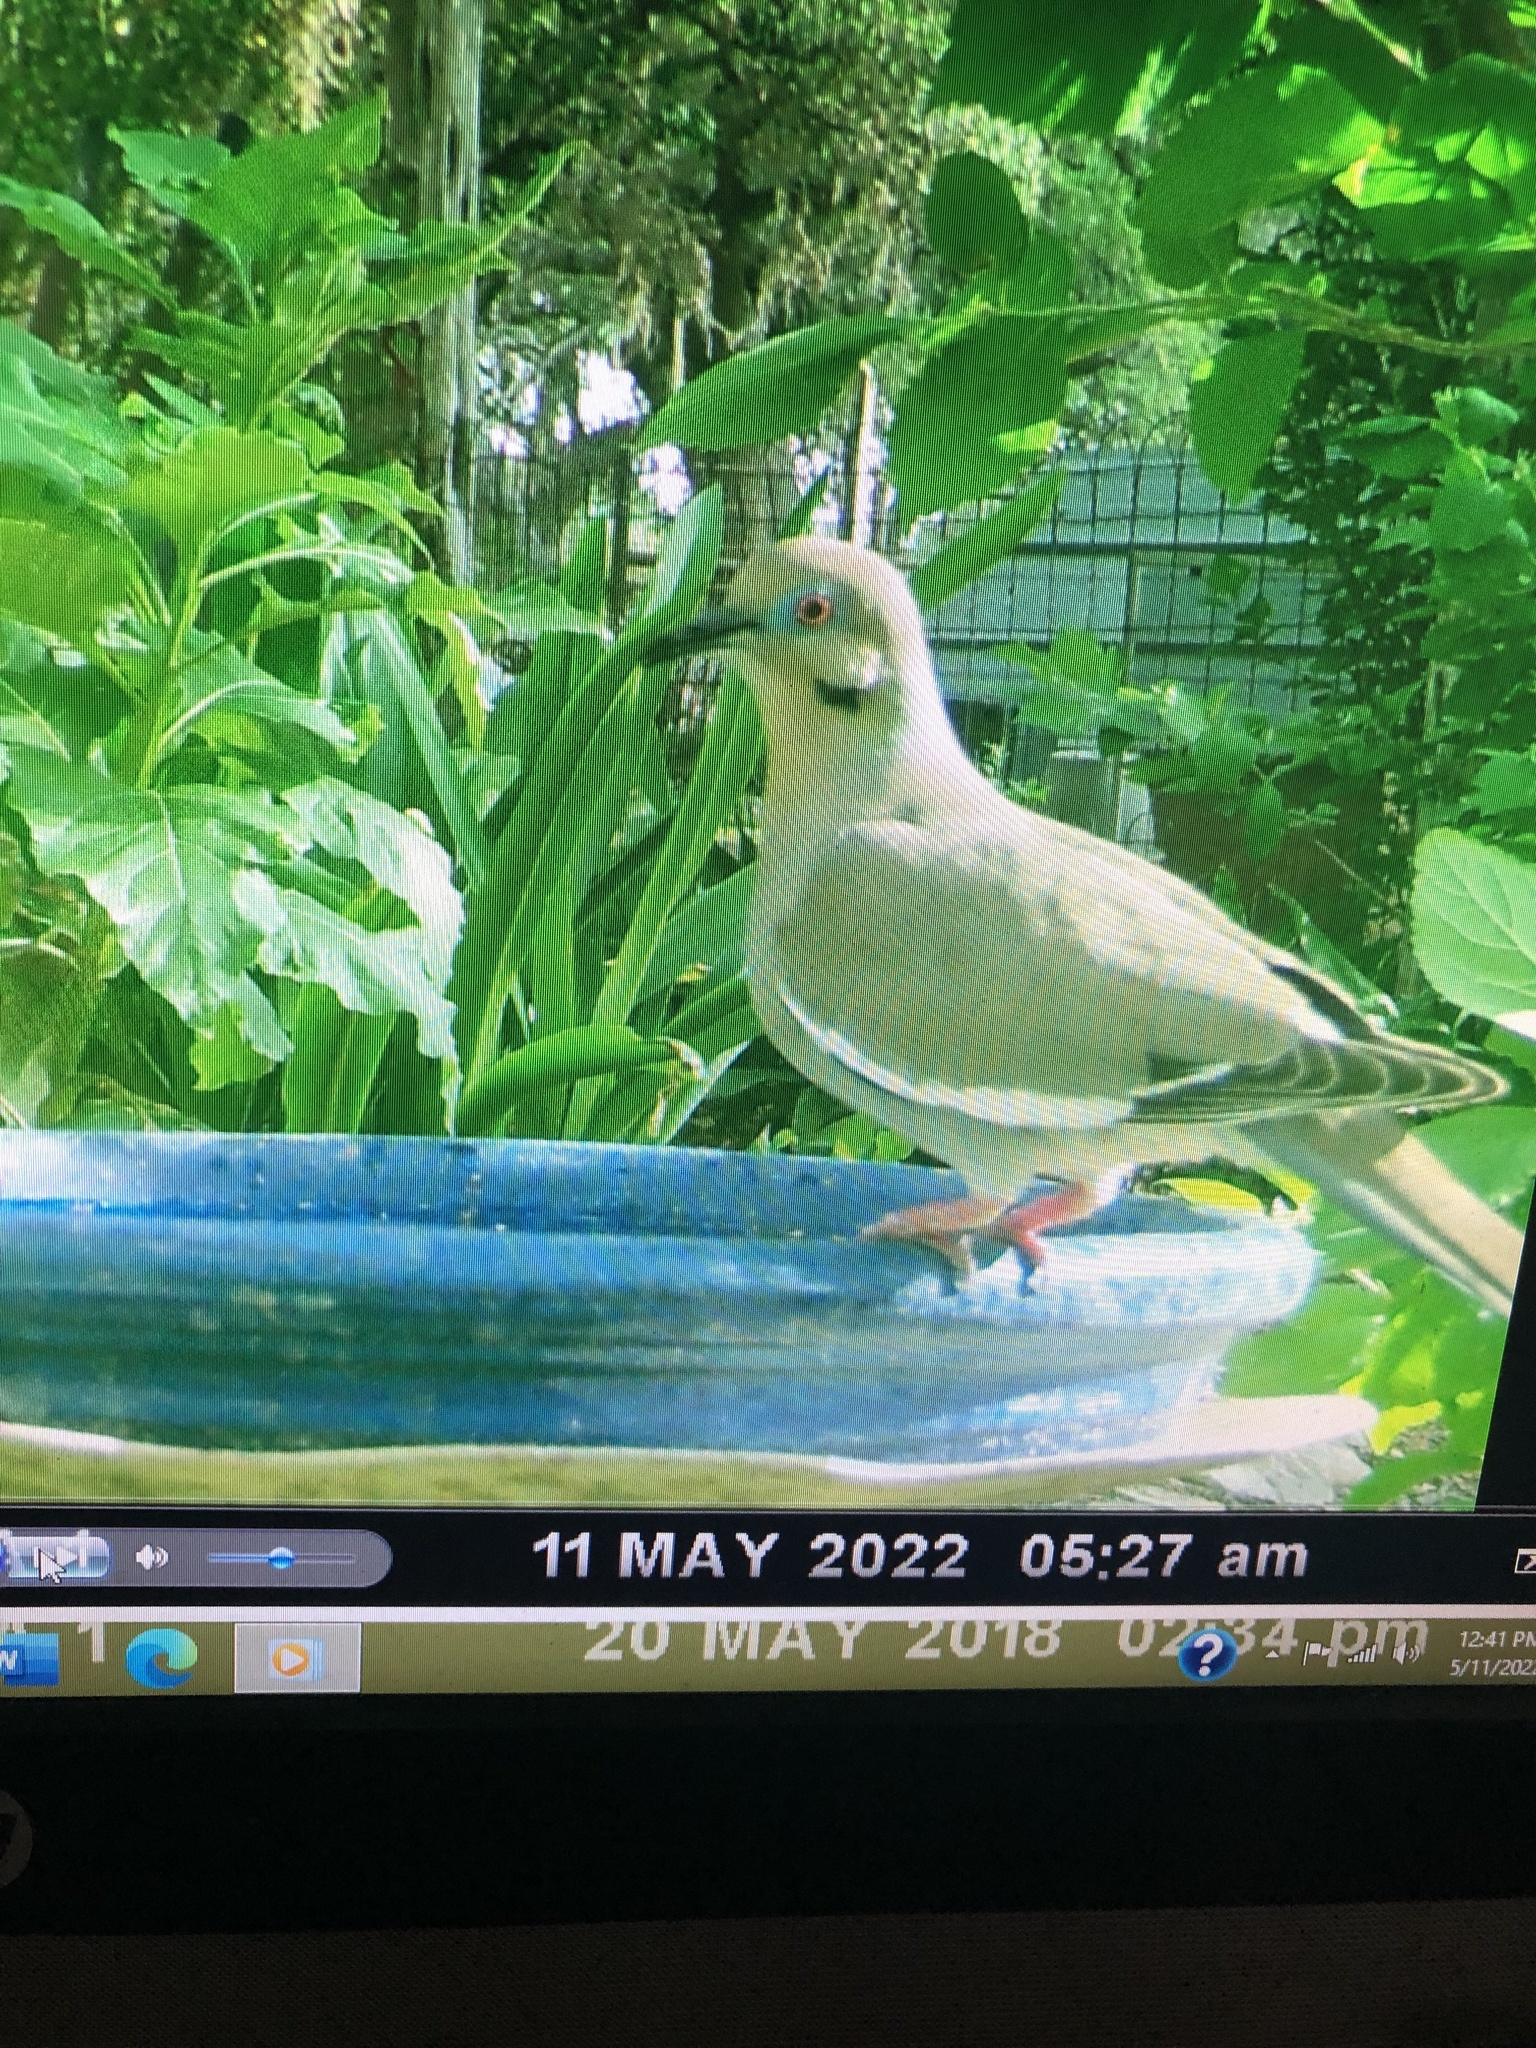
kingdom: Animalia
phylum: Chordata
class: Aves
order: Columbiformes
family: Columbidae
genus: Zenaida
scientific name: Zenaida asiatica
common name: White-winged dove
